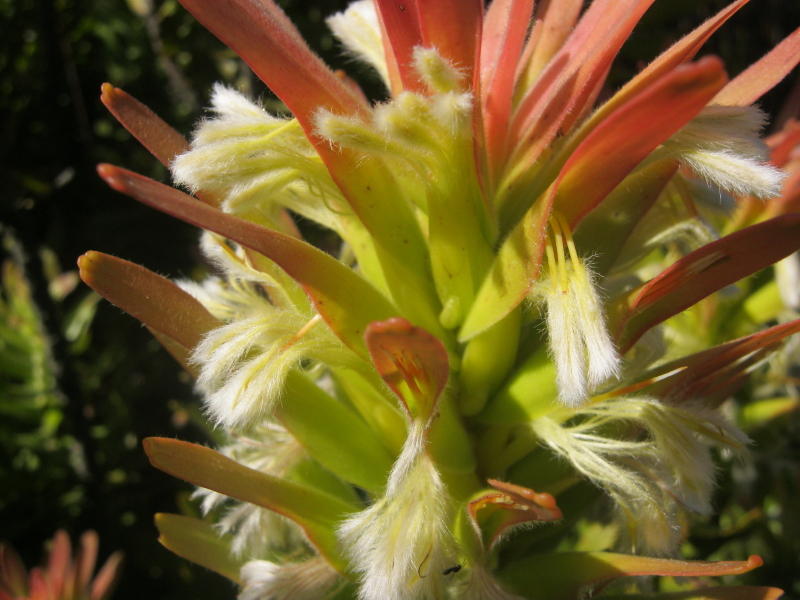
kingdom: Plantae
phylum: Tracheophyta
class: Magnoliopsida
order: Proteales
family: Proteaceae
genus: Mimetes
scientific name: Mimetes cucullatus
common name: Common pagoda
